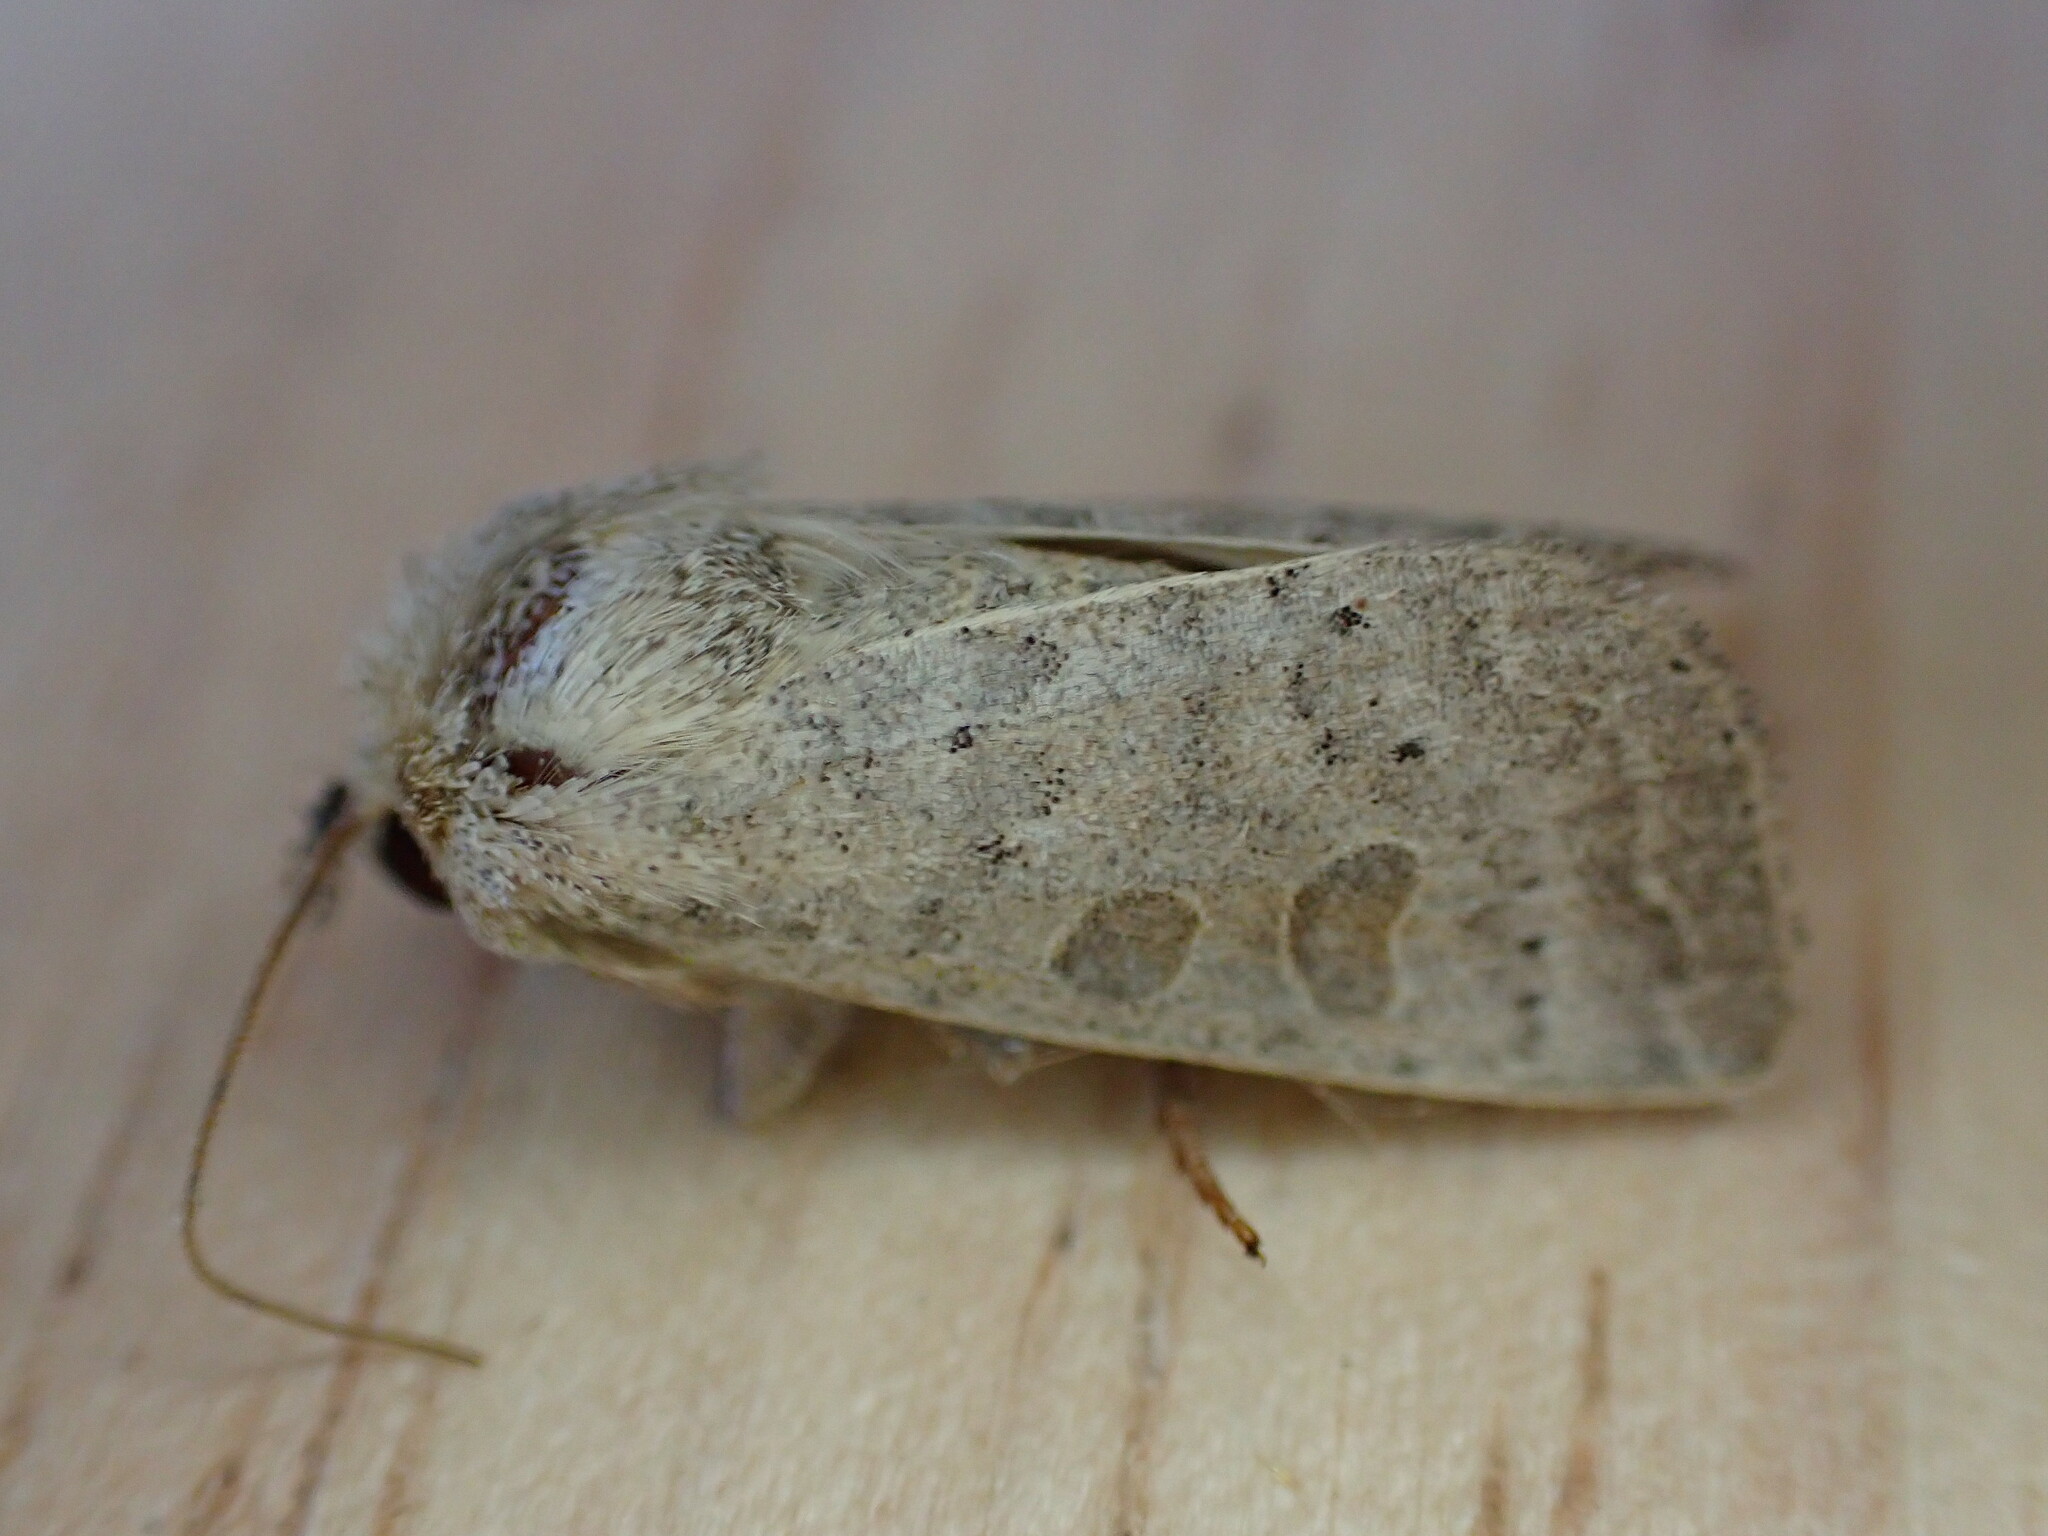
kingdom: Animalia
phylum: Arthropoda
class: Insecta
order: Lepidoptera
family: Noctuidae
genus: Hoplodrina
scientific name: Hoplodrina ambigua
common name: Vine's rustic
